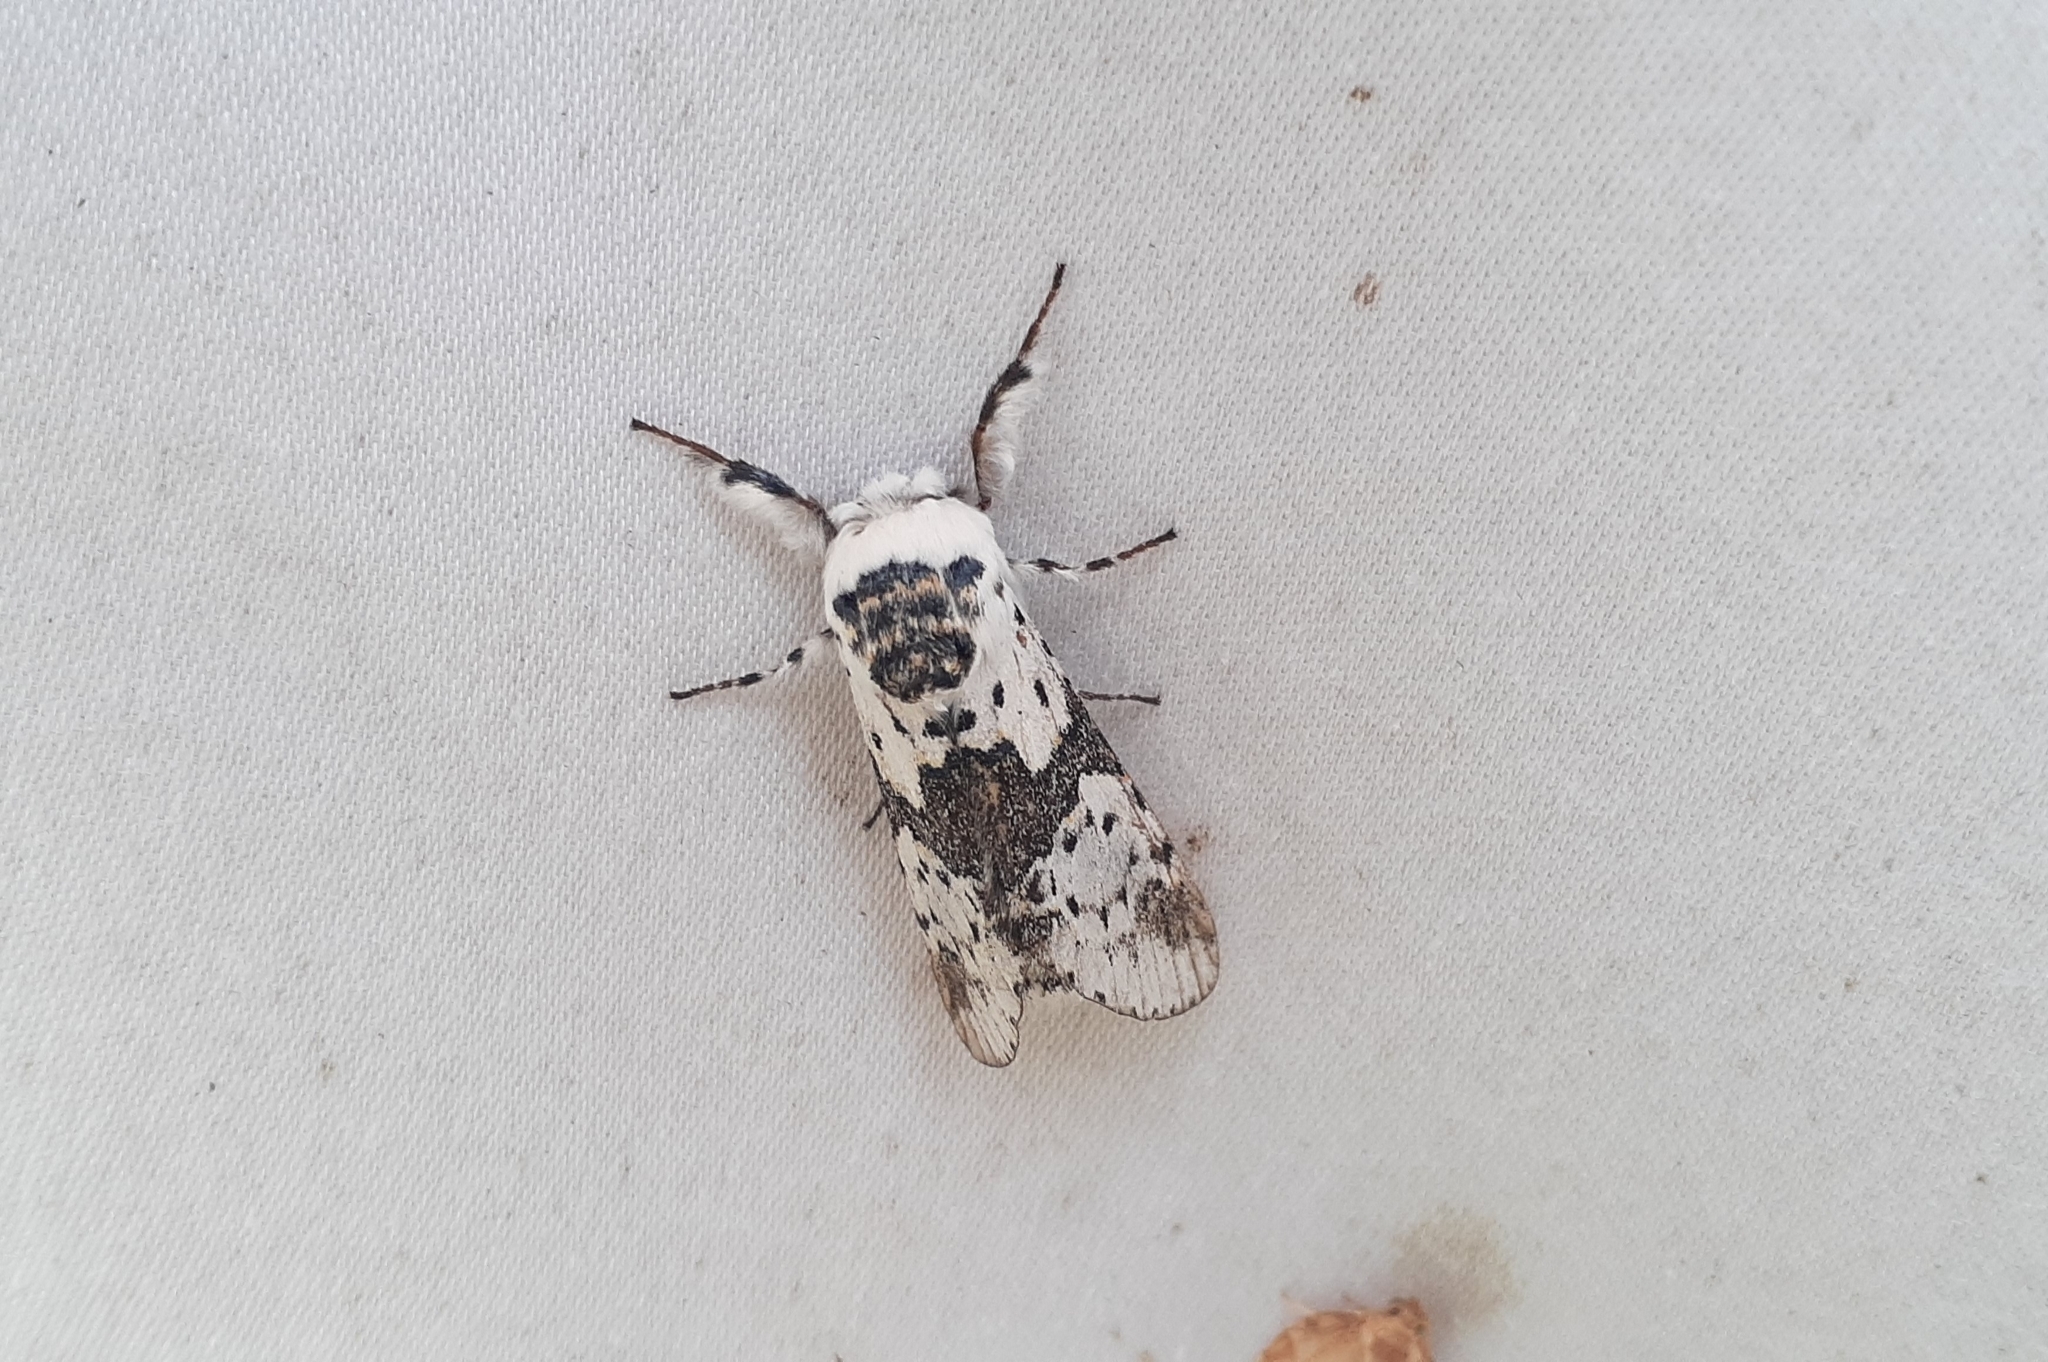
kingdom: Animalia
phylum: Arthropoda
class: Insecta
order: Lepidoptera
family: Notodontidae
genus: Furcula
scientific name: Furcula borealis
